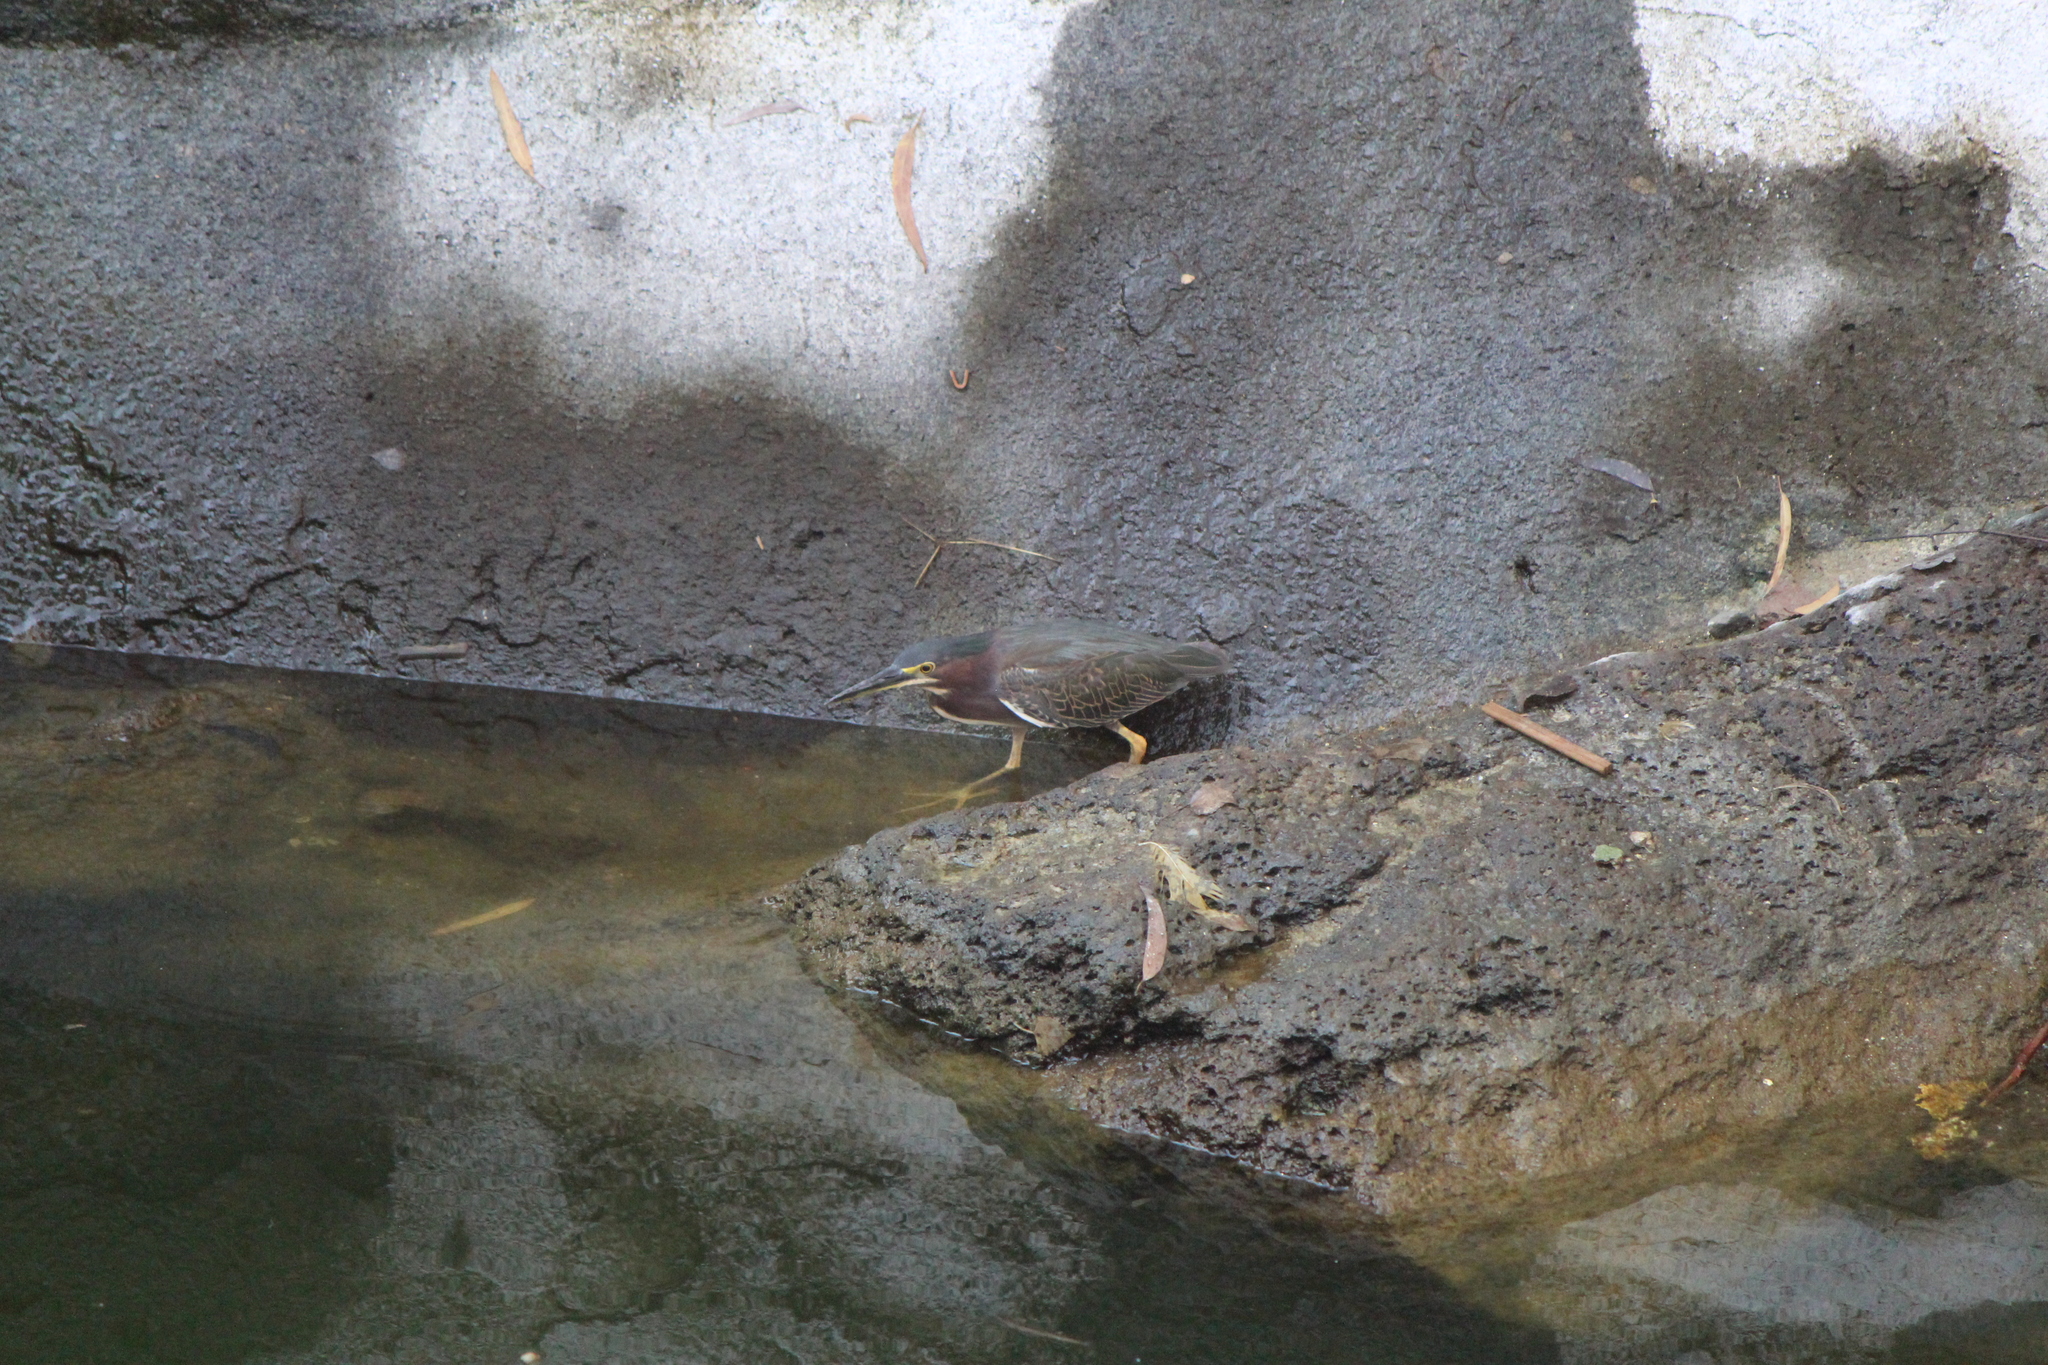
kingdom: Animalia
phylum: Chordata
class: Aves
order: Pelecaniformes
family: Ardeidae
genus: Butorides
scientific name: Butorides virescens
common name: Green heron
